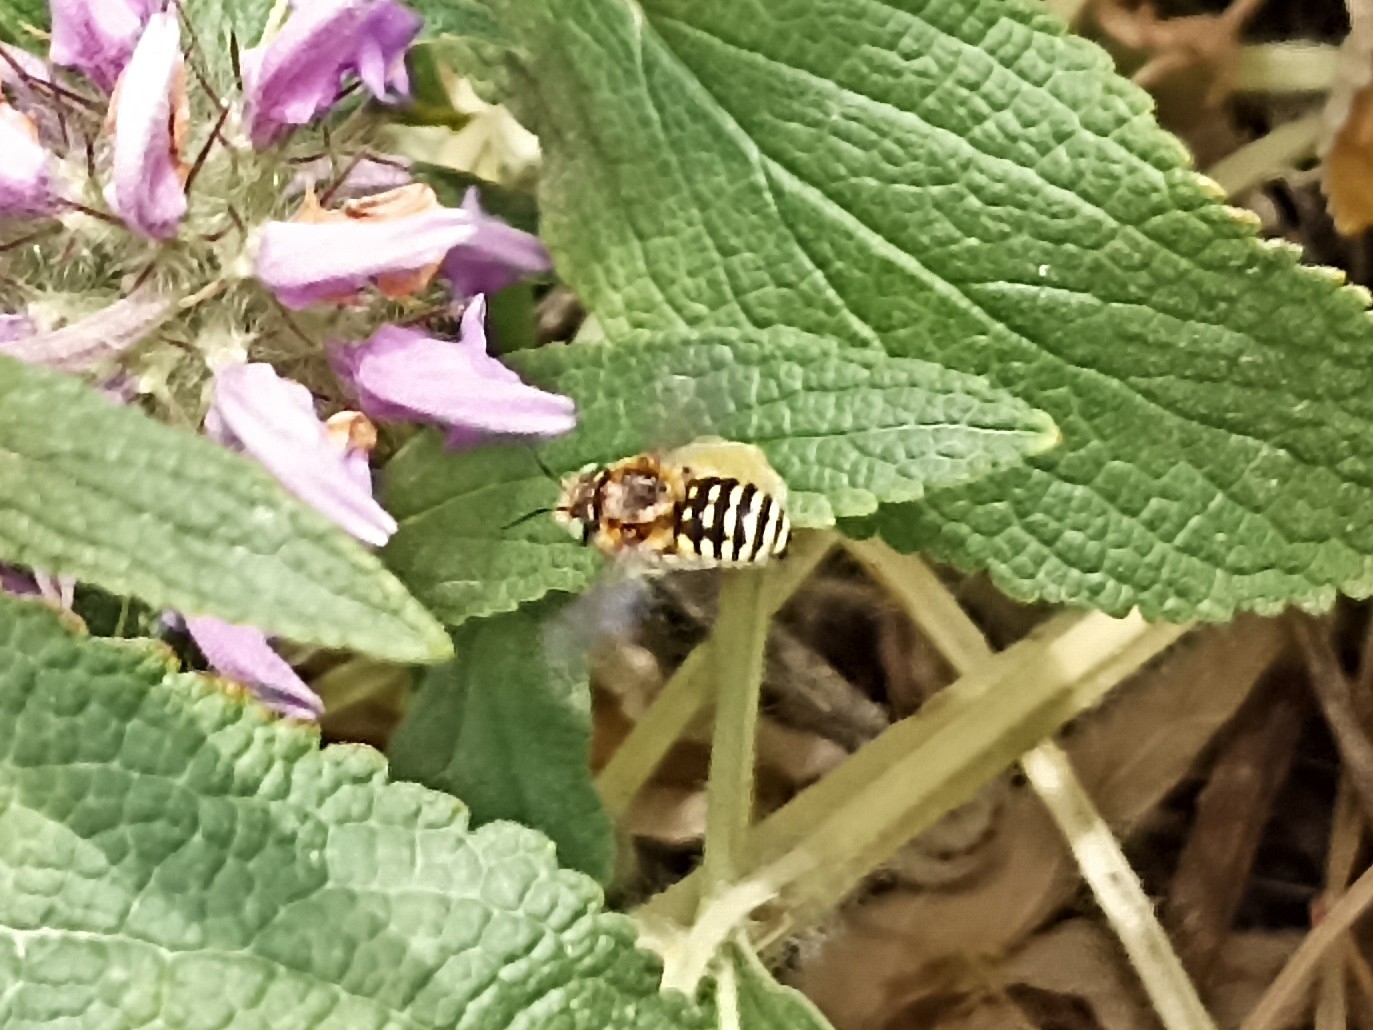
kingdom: Animalia
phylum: Arthropoda
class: Insecta
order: Hymenoptera
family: Megachilidae
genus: Anthidium
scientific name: Anthidium taeniatum
